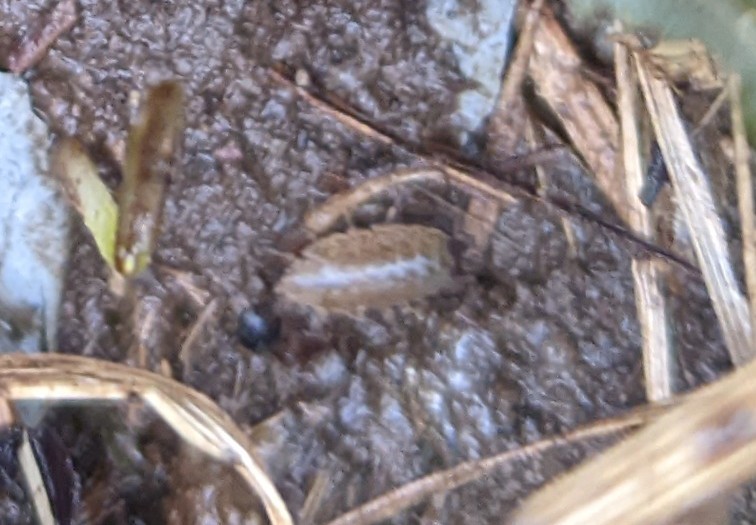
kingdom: Animalia
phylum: Arthropoda
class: Malacostraca
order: Isopoda
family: Philosciidae
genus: Philoscia
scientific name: Philoscia muscorum
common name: Common striped woodlouse
